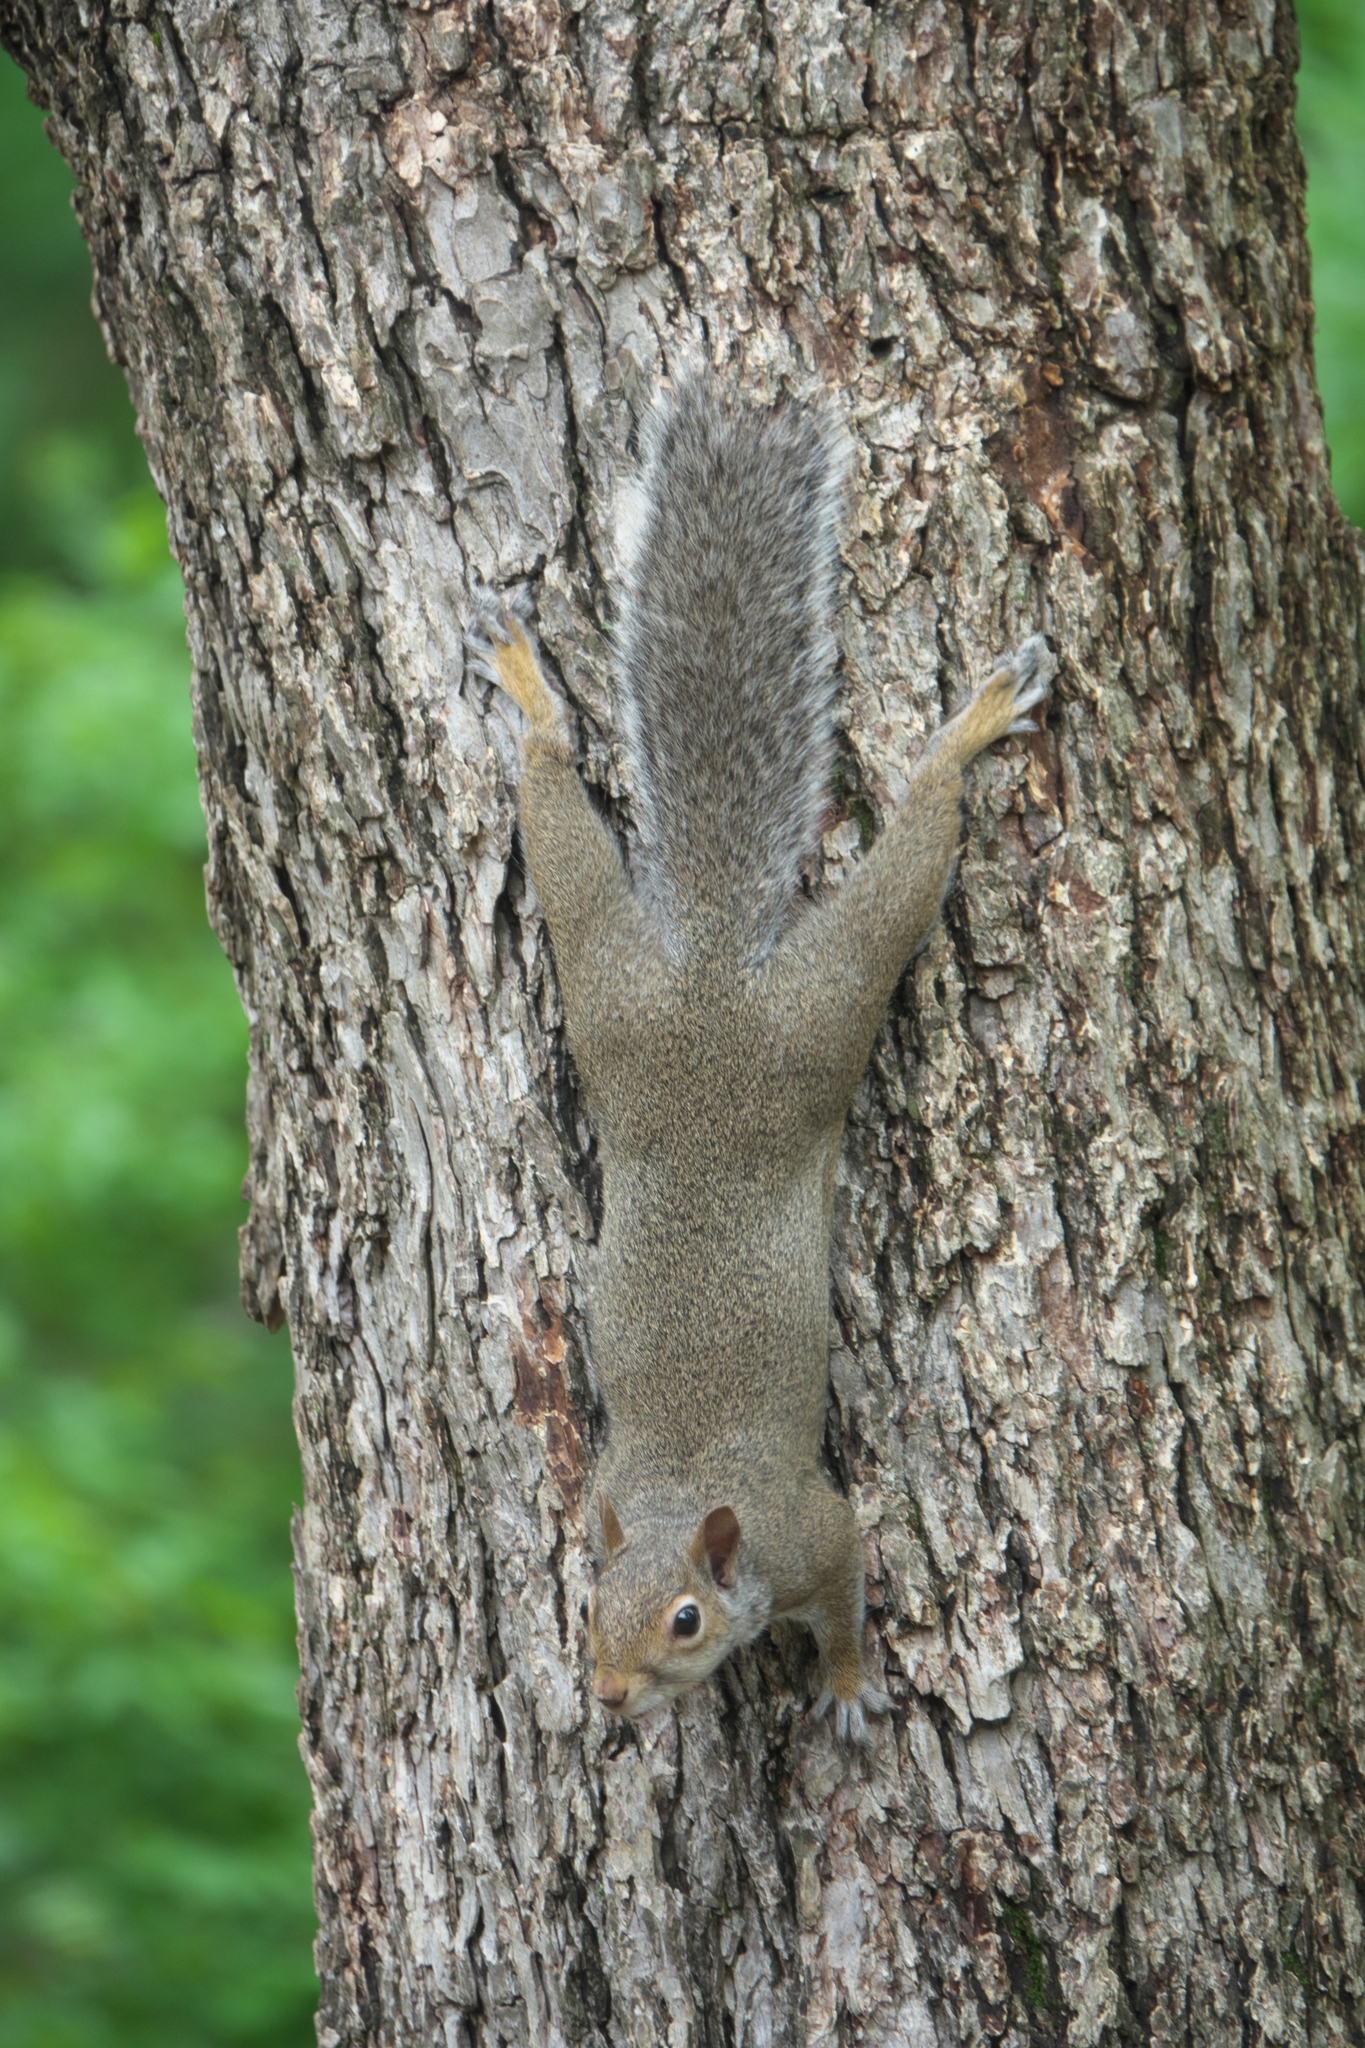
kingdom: Animalia
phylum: Chordata
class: Mammalia
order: Rodentia
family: Sciuridae
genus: Sciurus
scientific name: Sciurus carolinensis
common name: Eastern gray squirrel
